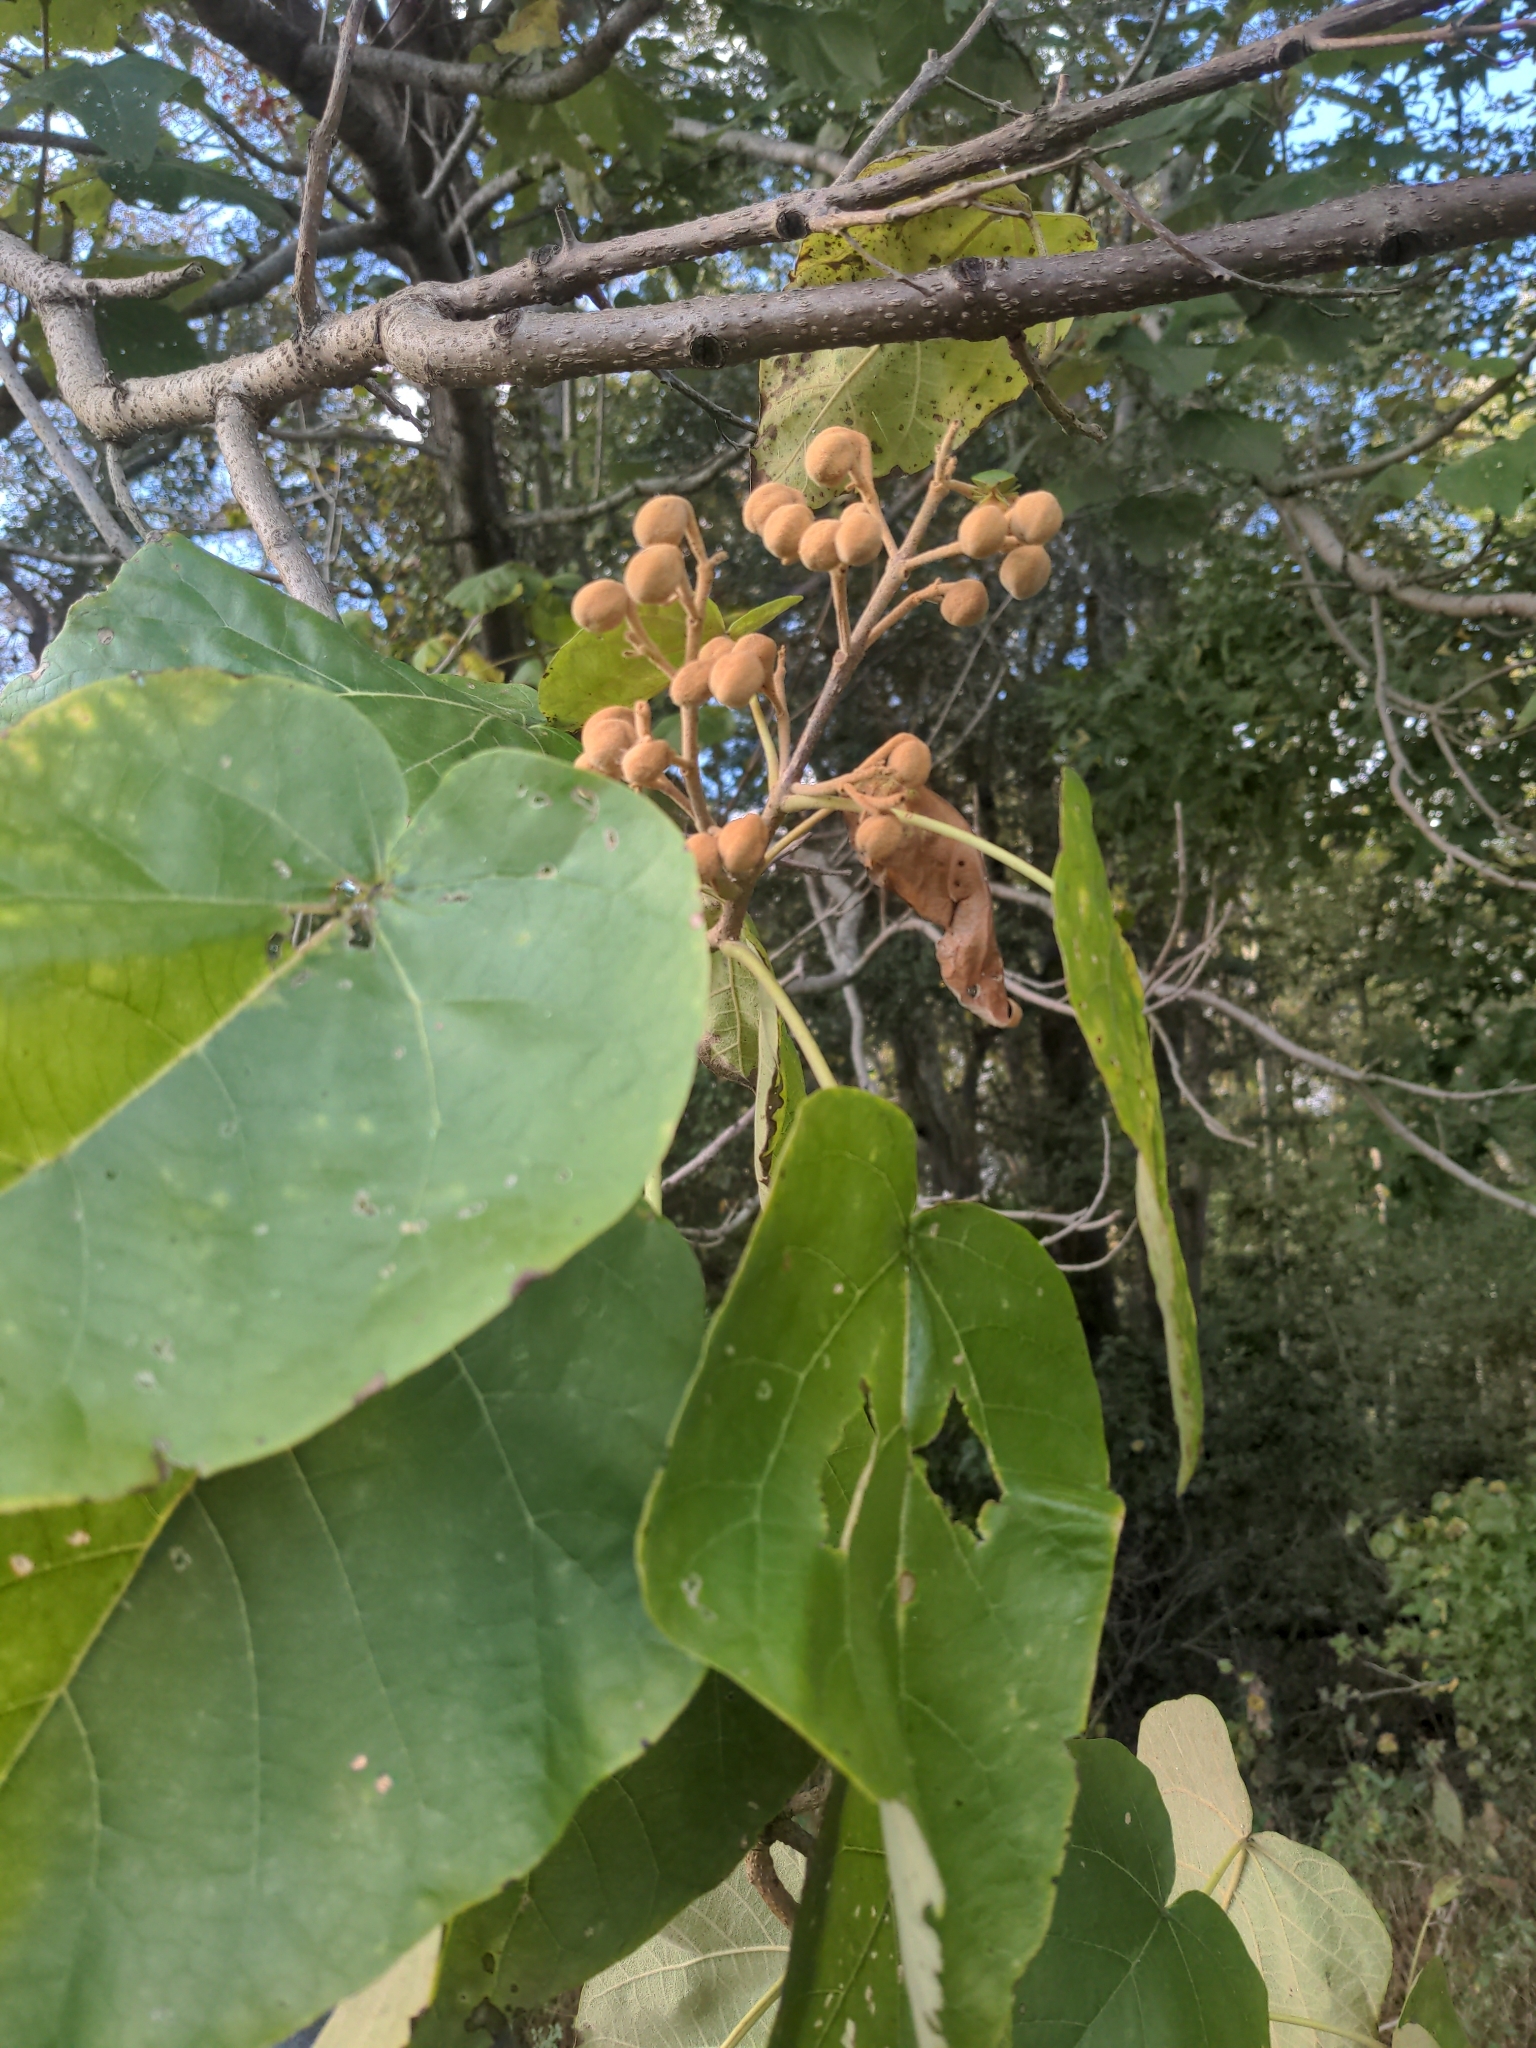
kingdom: Plantae
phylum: Tracheophyta
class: Magnoliopsida
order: Lamiales
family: Paulowniaceae
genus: Paulownia
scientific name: Paulownia tomentosa
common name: Foxglove-tree
